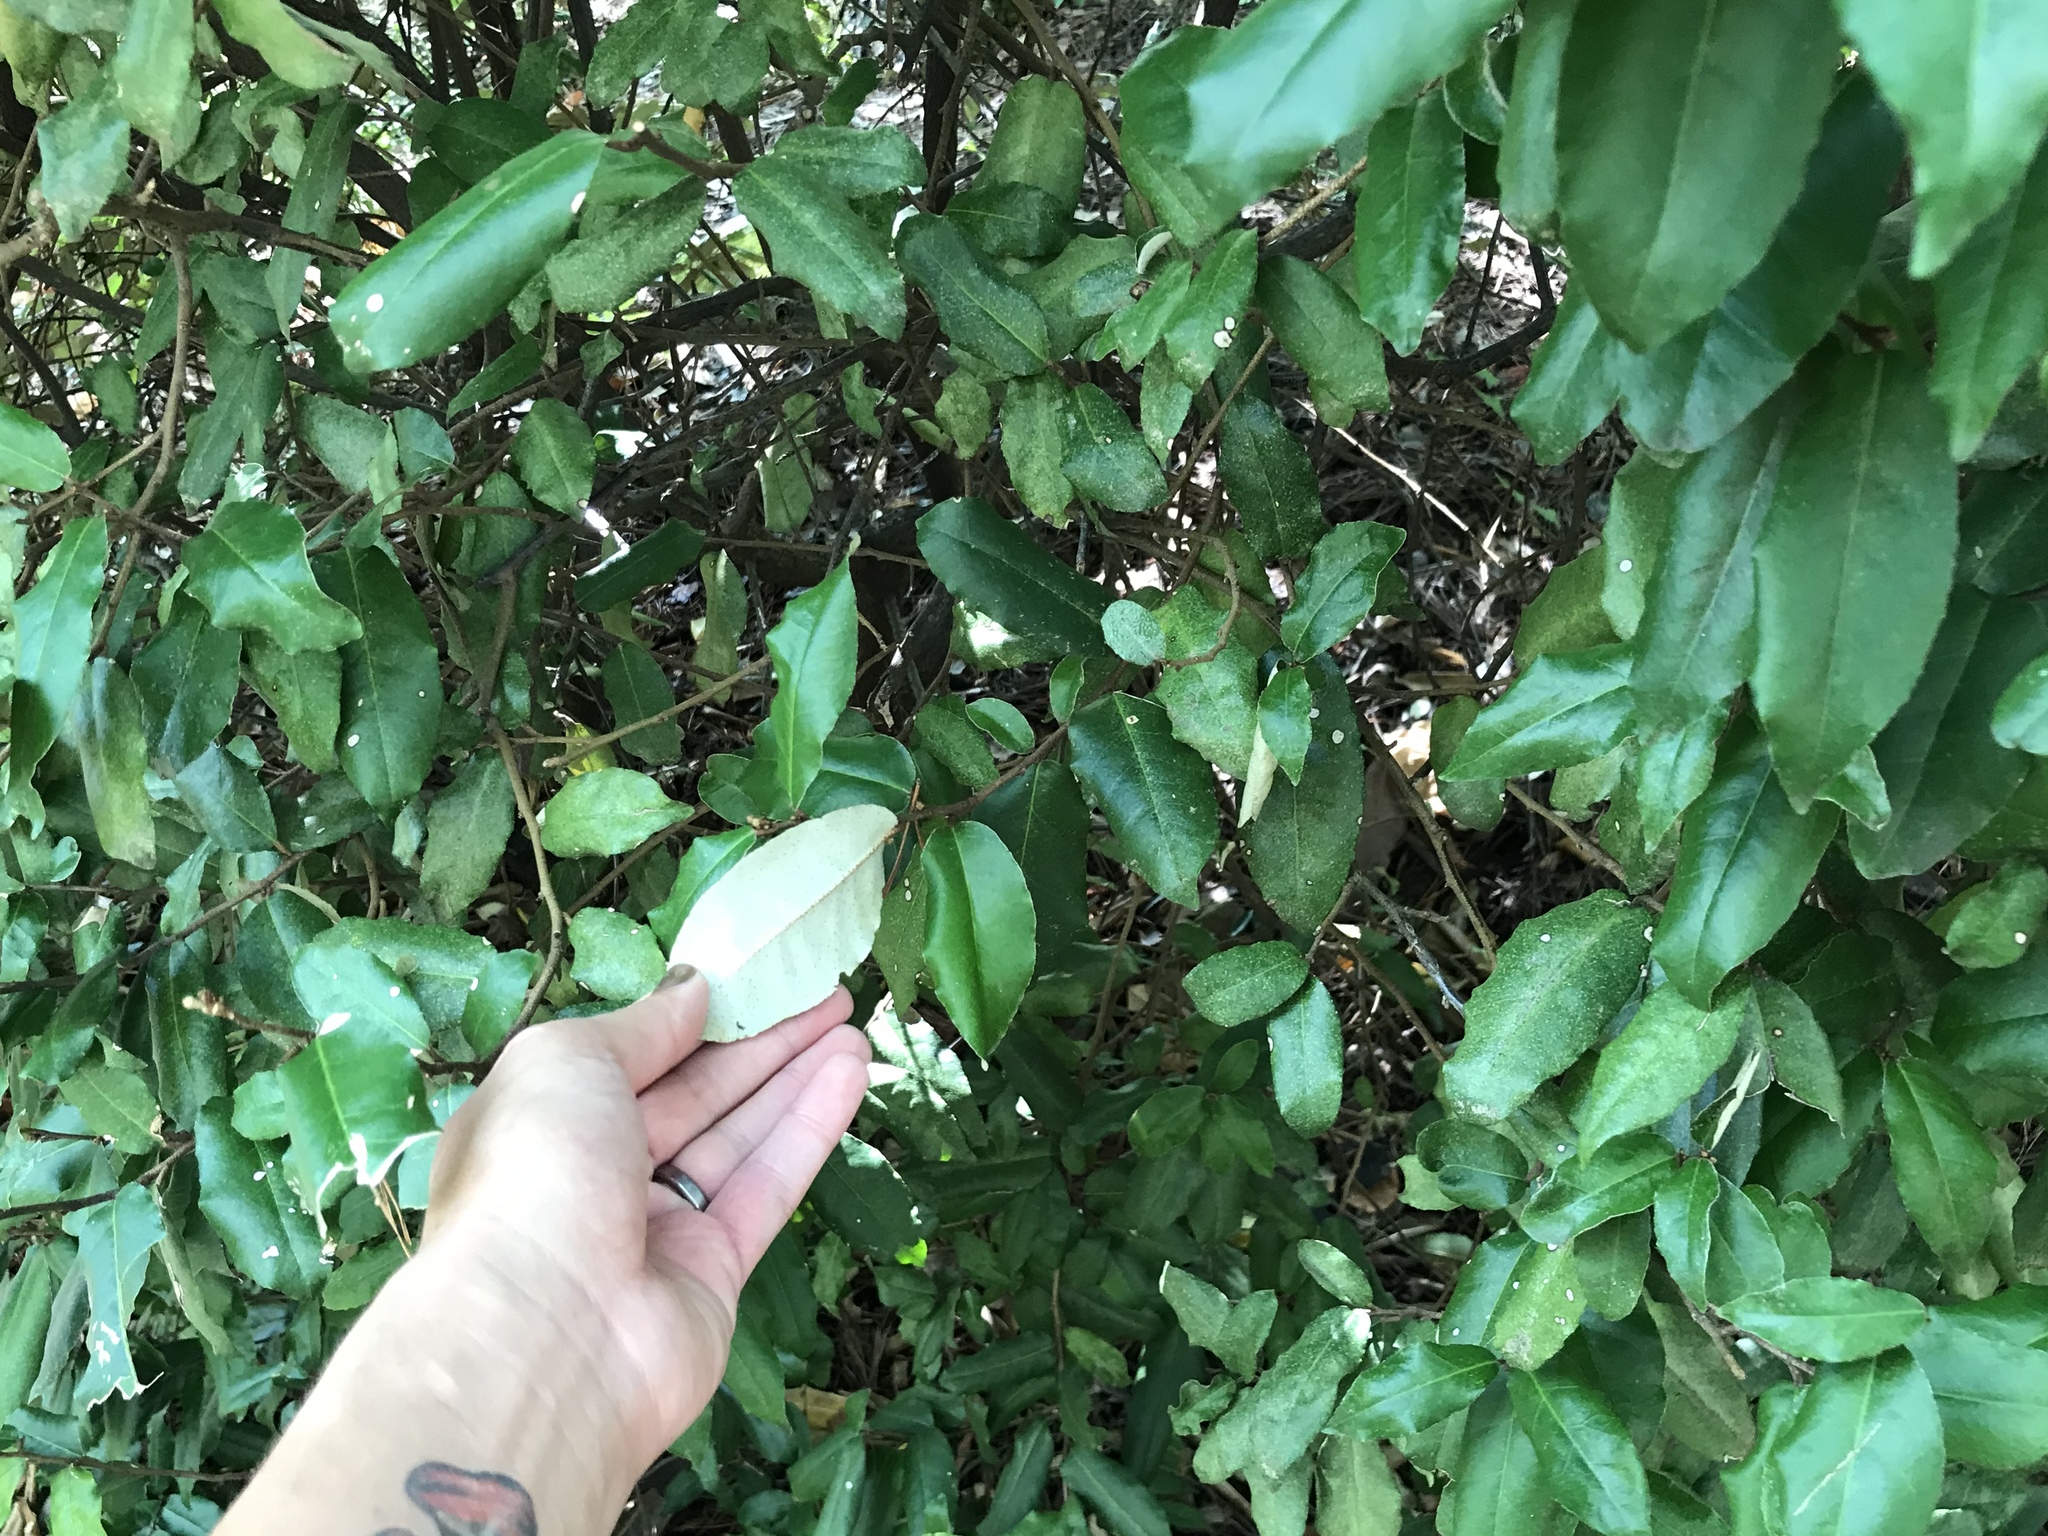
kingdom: Plantae
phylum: Tracheophyta
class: Magnoliopsida
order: Rosales
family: Elaeagnaceae
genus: Elaeagnus
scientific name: Elaeagnus pungens
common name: Spiny oleaster
